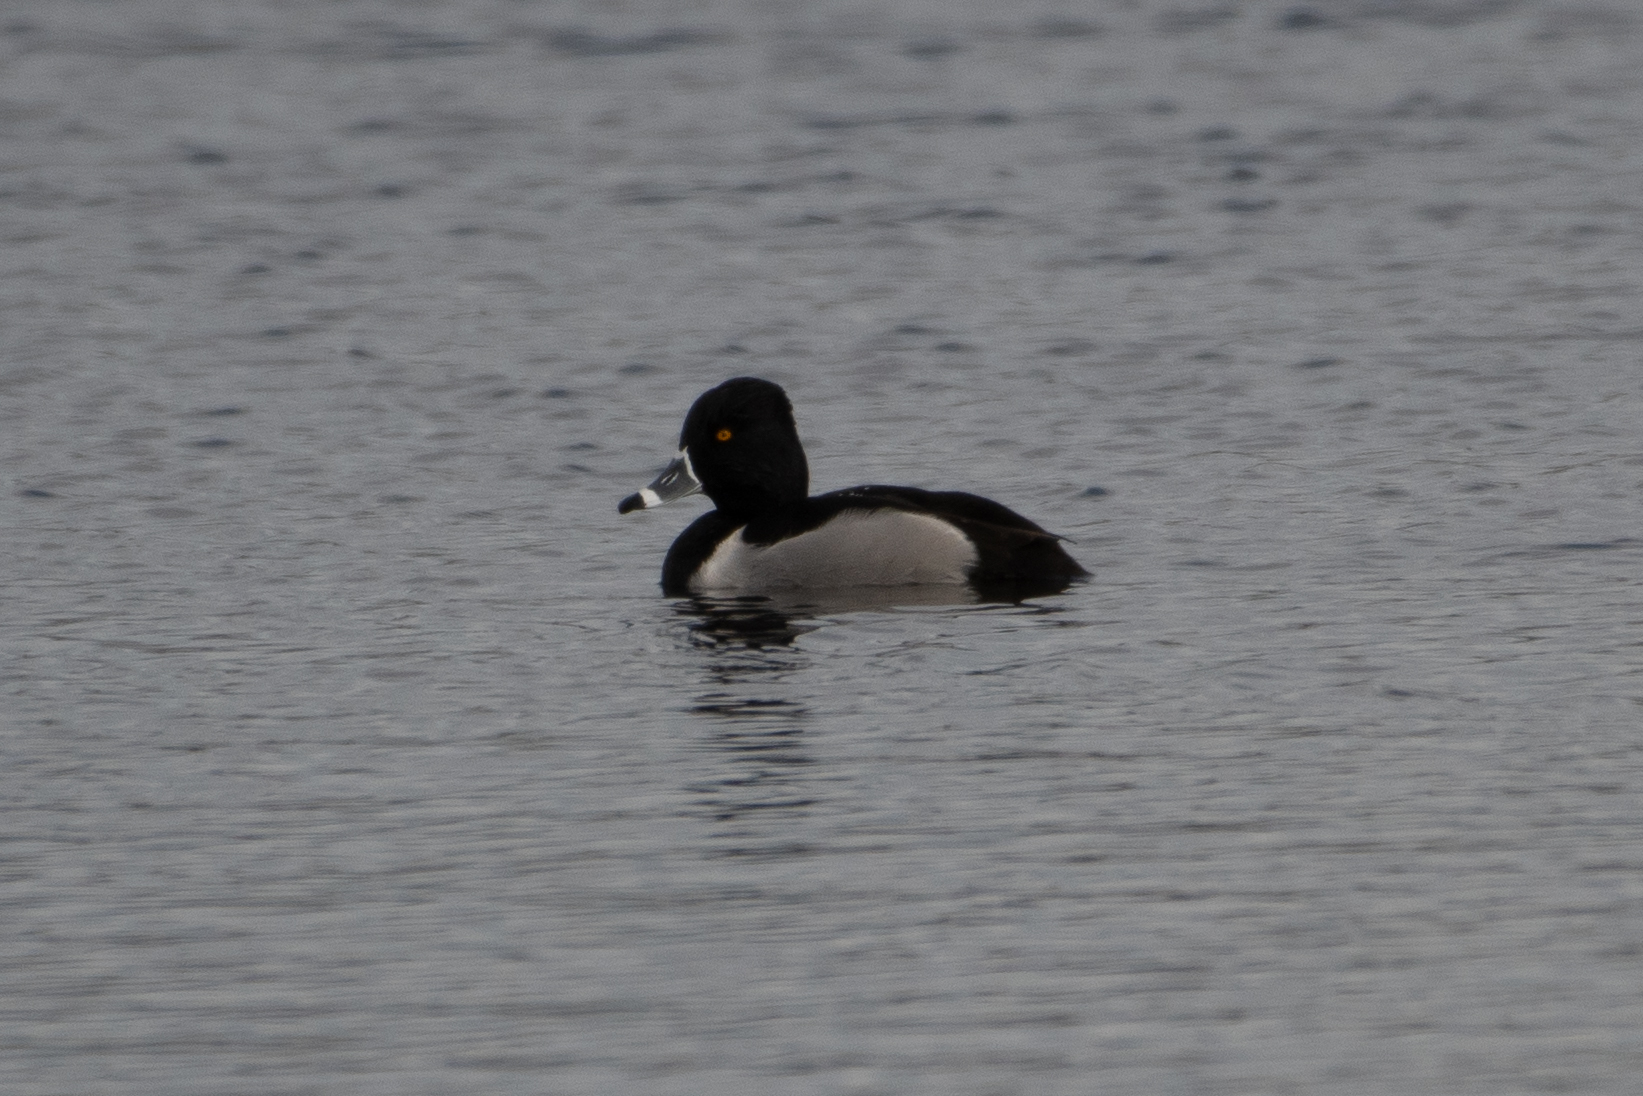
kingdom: Animalia
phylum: Chordata
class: Aves
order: Anseriformes
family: Anatidae
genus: Aythya
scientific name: Aythya collaris
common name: Ring-necked duck
